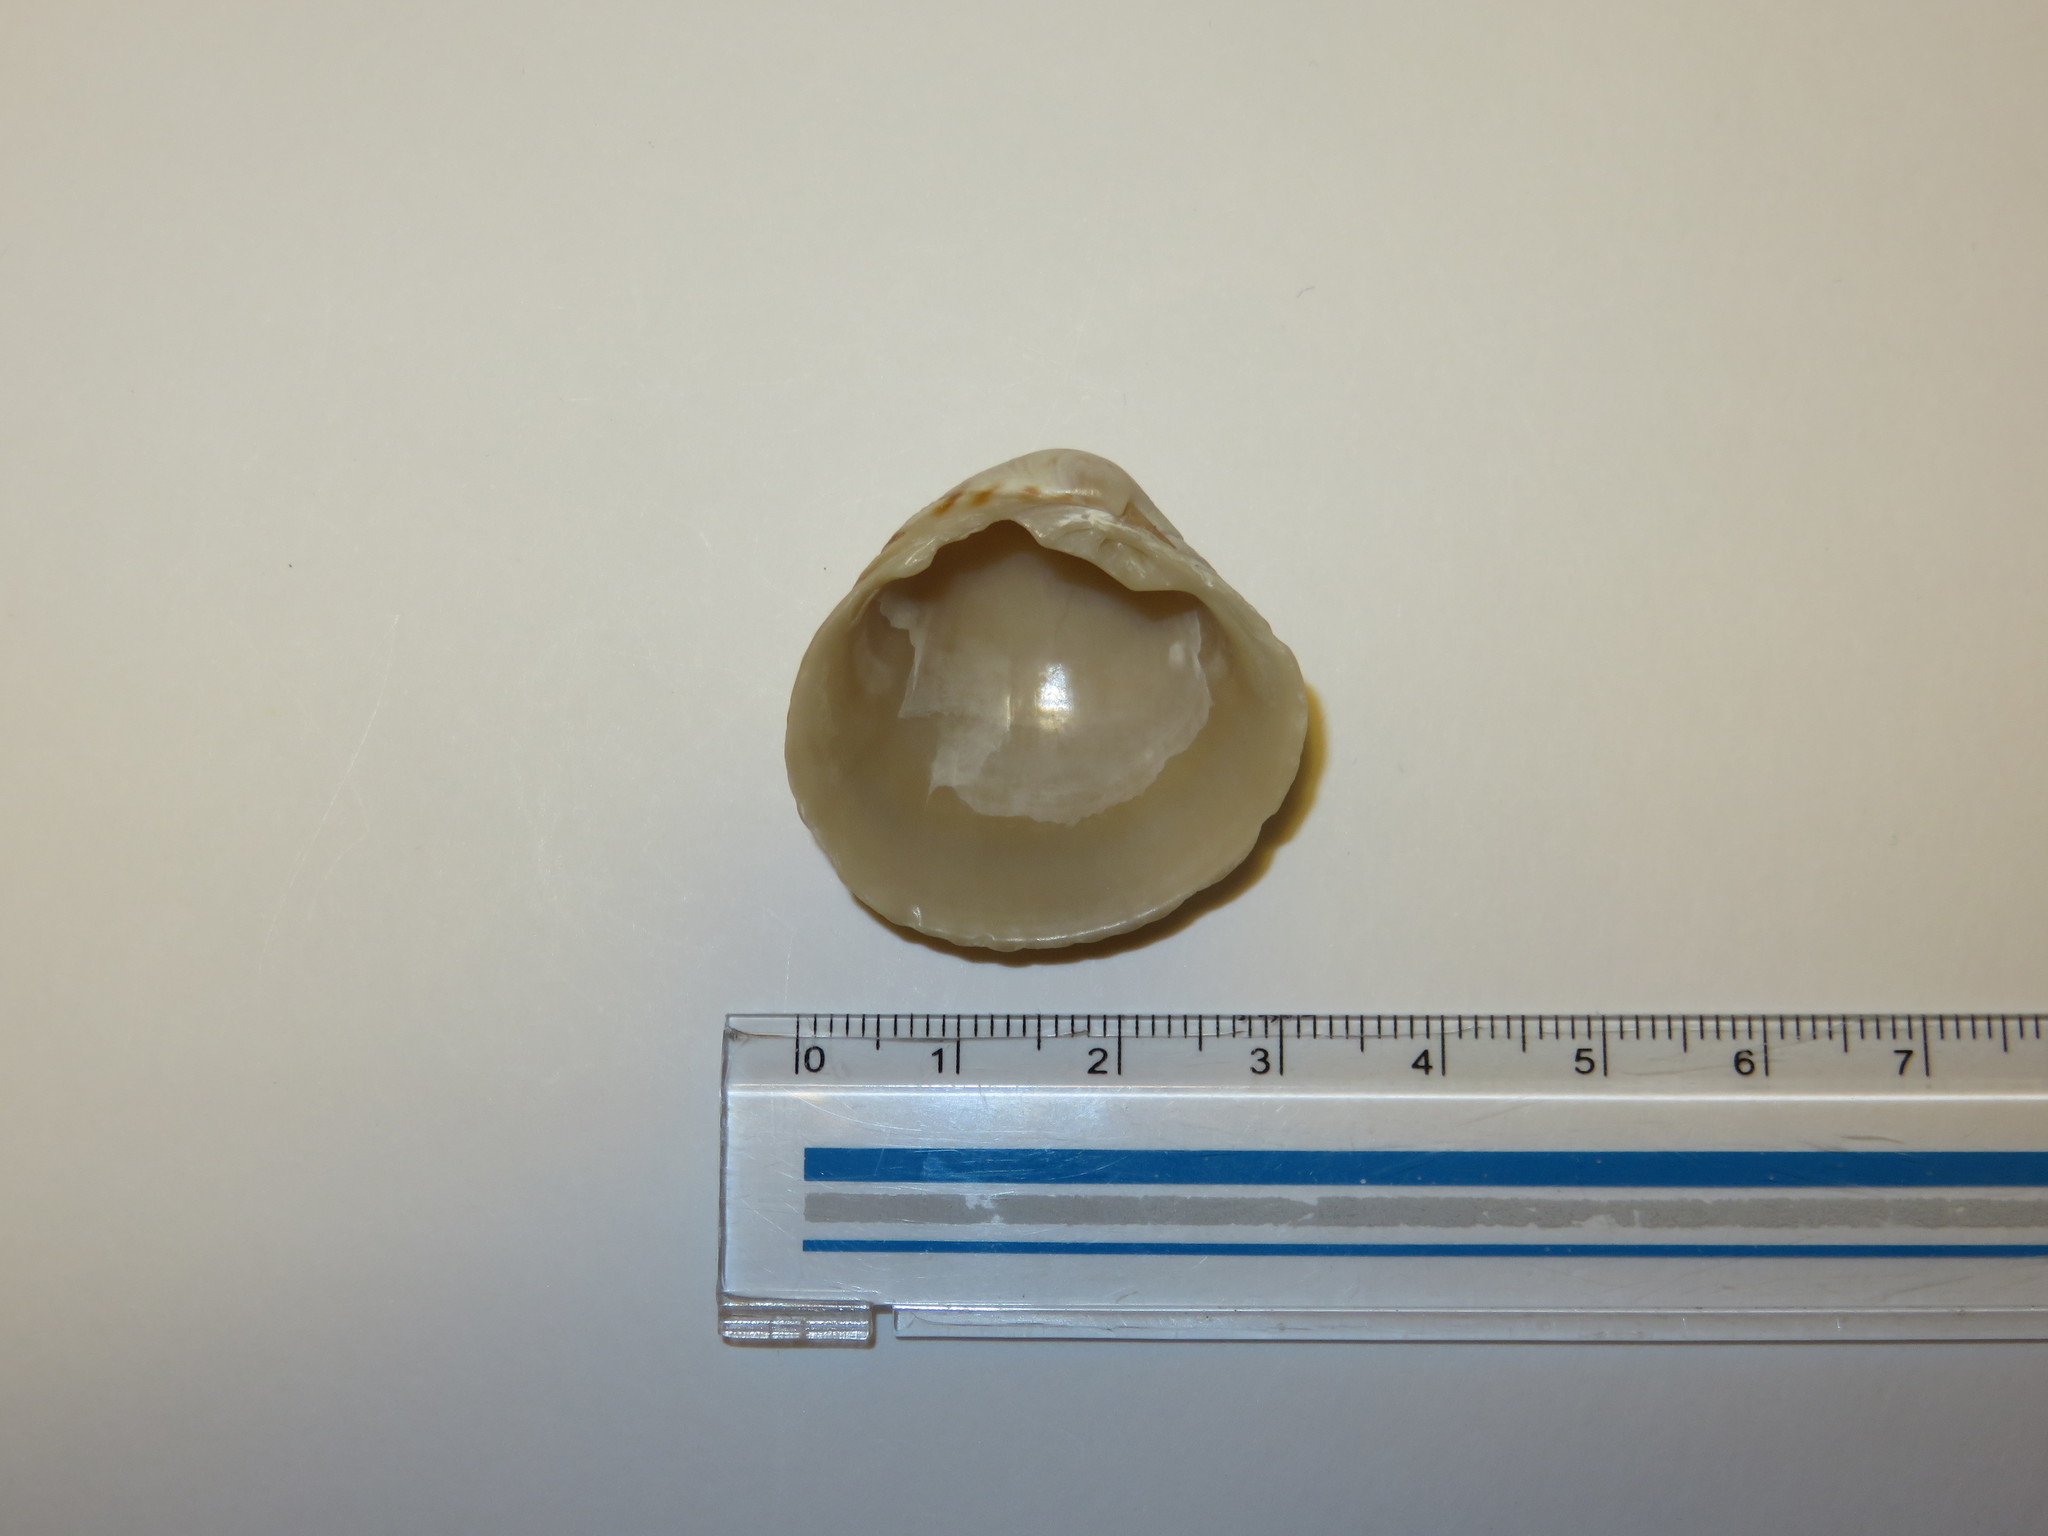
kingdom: Animalia
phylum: Mollusca
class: Bivalvia
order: Venerida
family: Veneridae
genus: Leukoma
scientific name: Leukoma jedoensis
